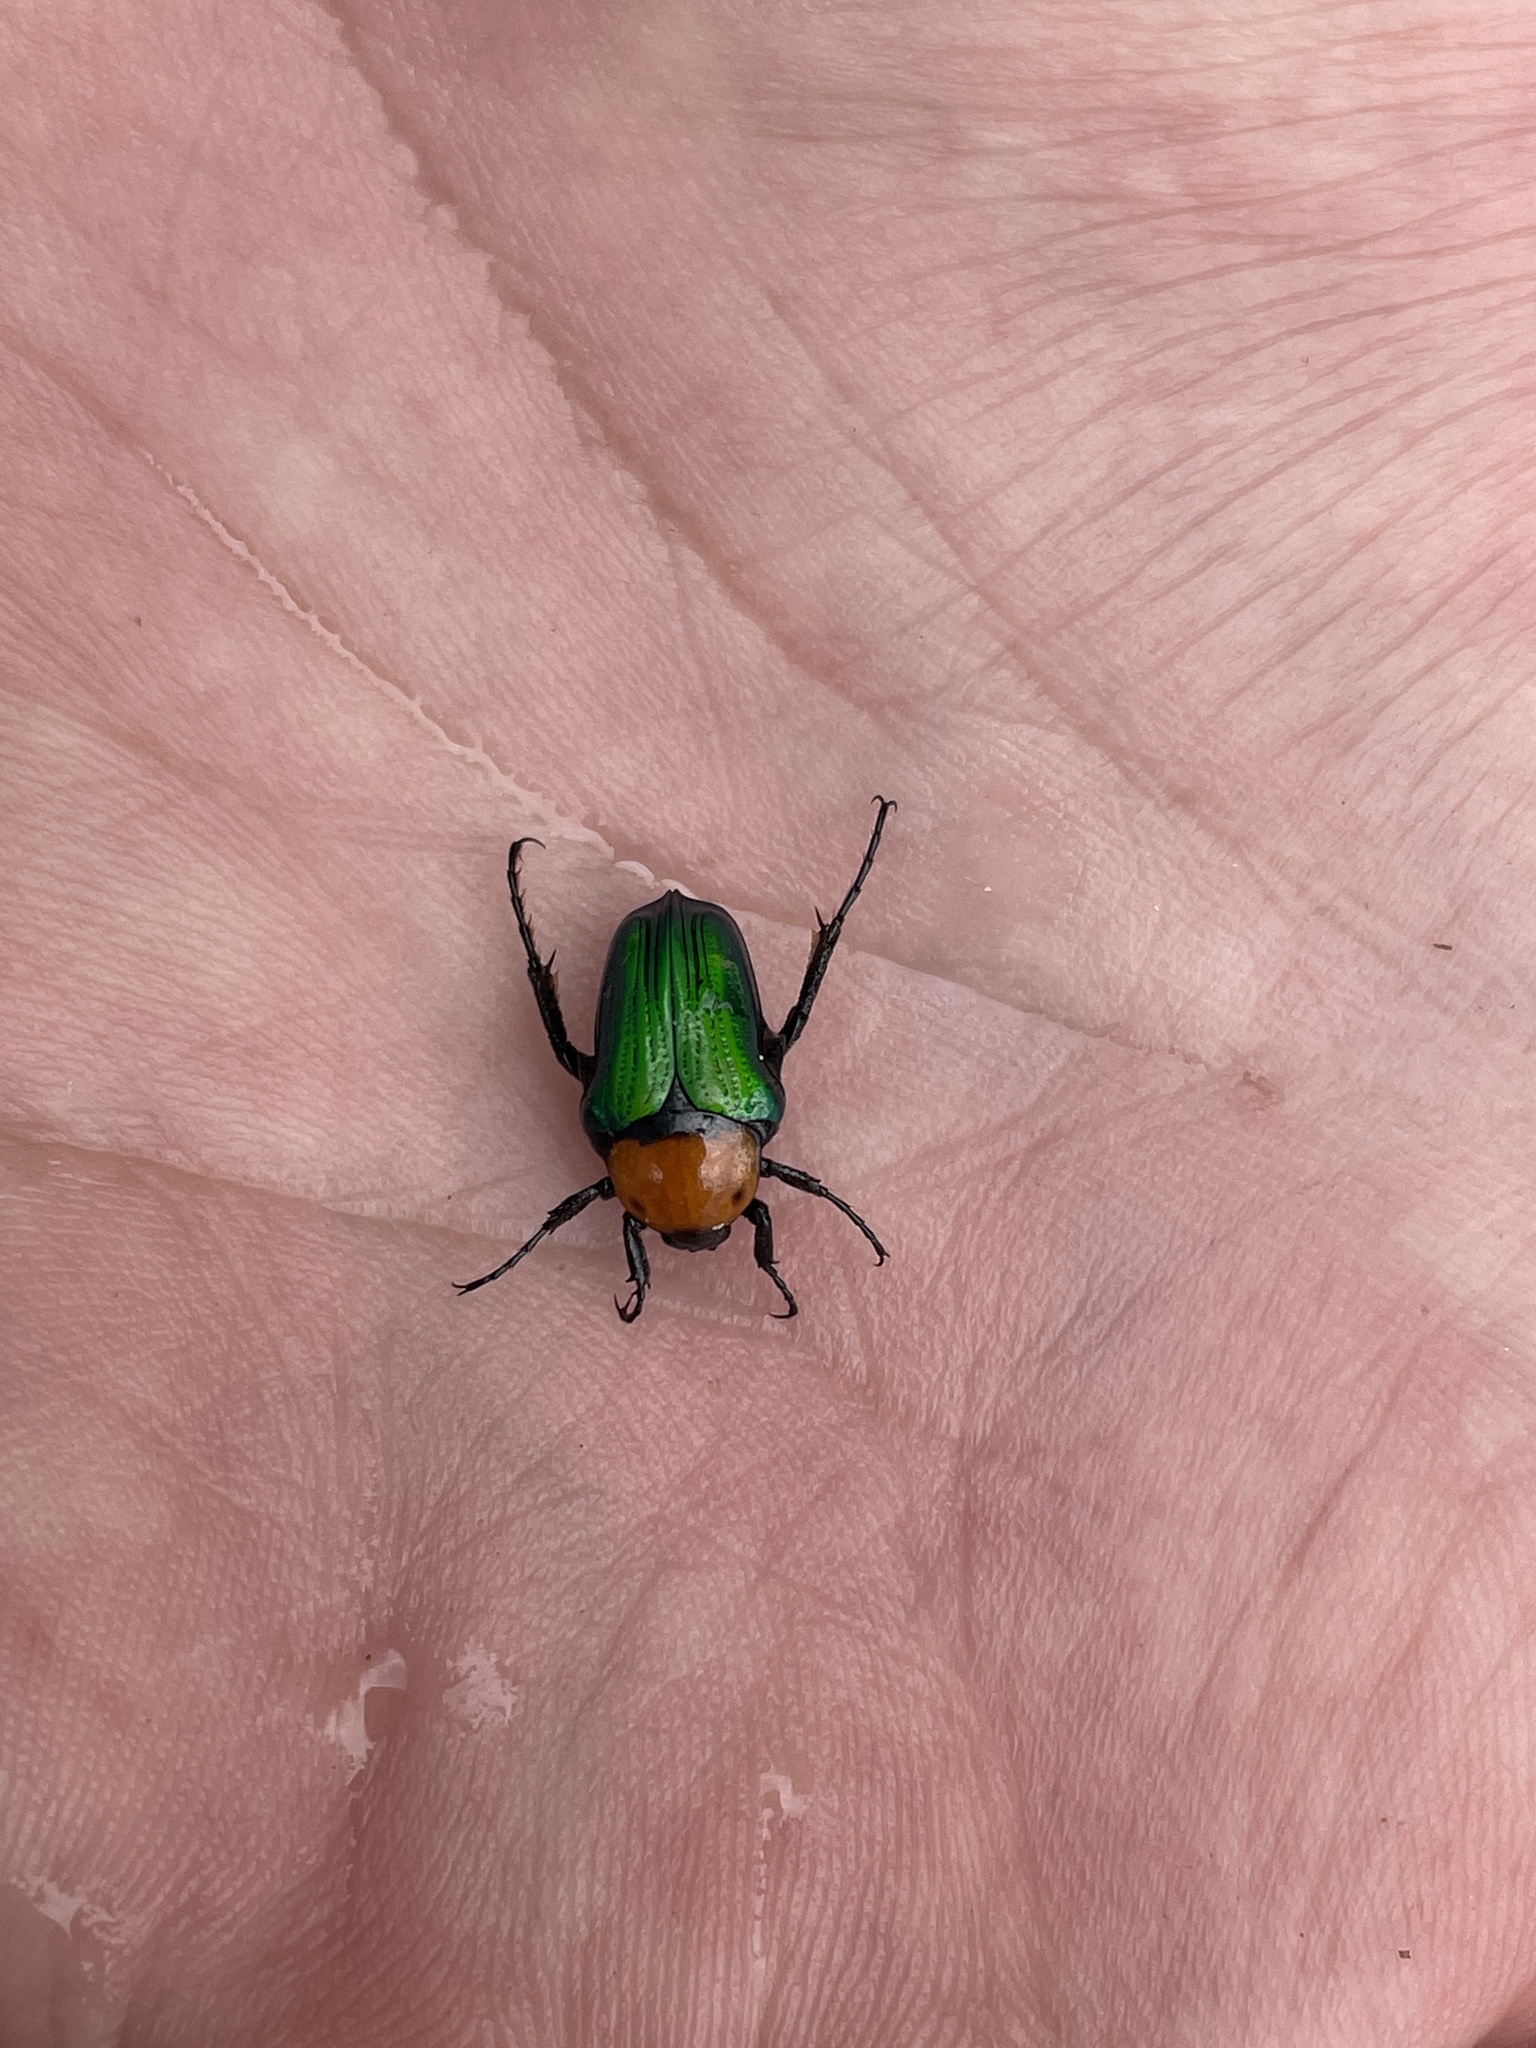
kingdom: Animalia
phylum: Arthropoda
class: Insecta
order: Coleoptera
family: Scarabaeidae
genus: Leucocelis
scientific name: Leucocelis amethystina
